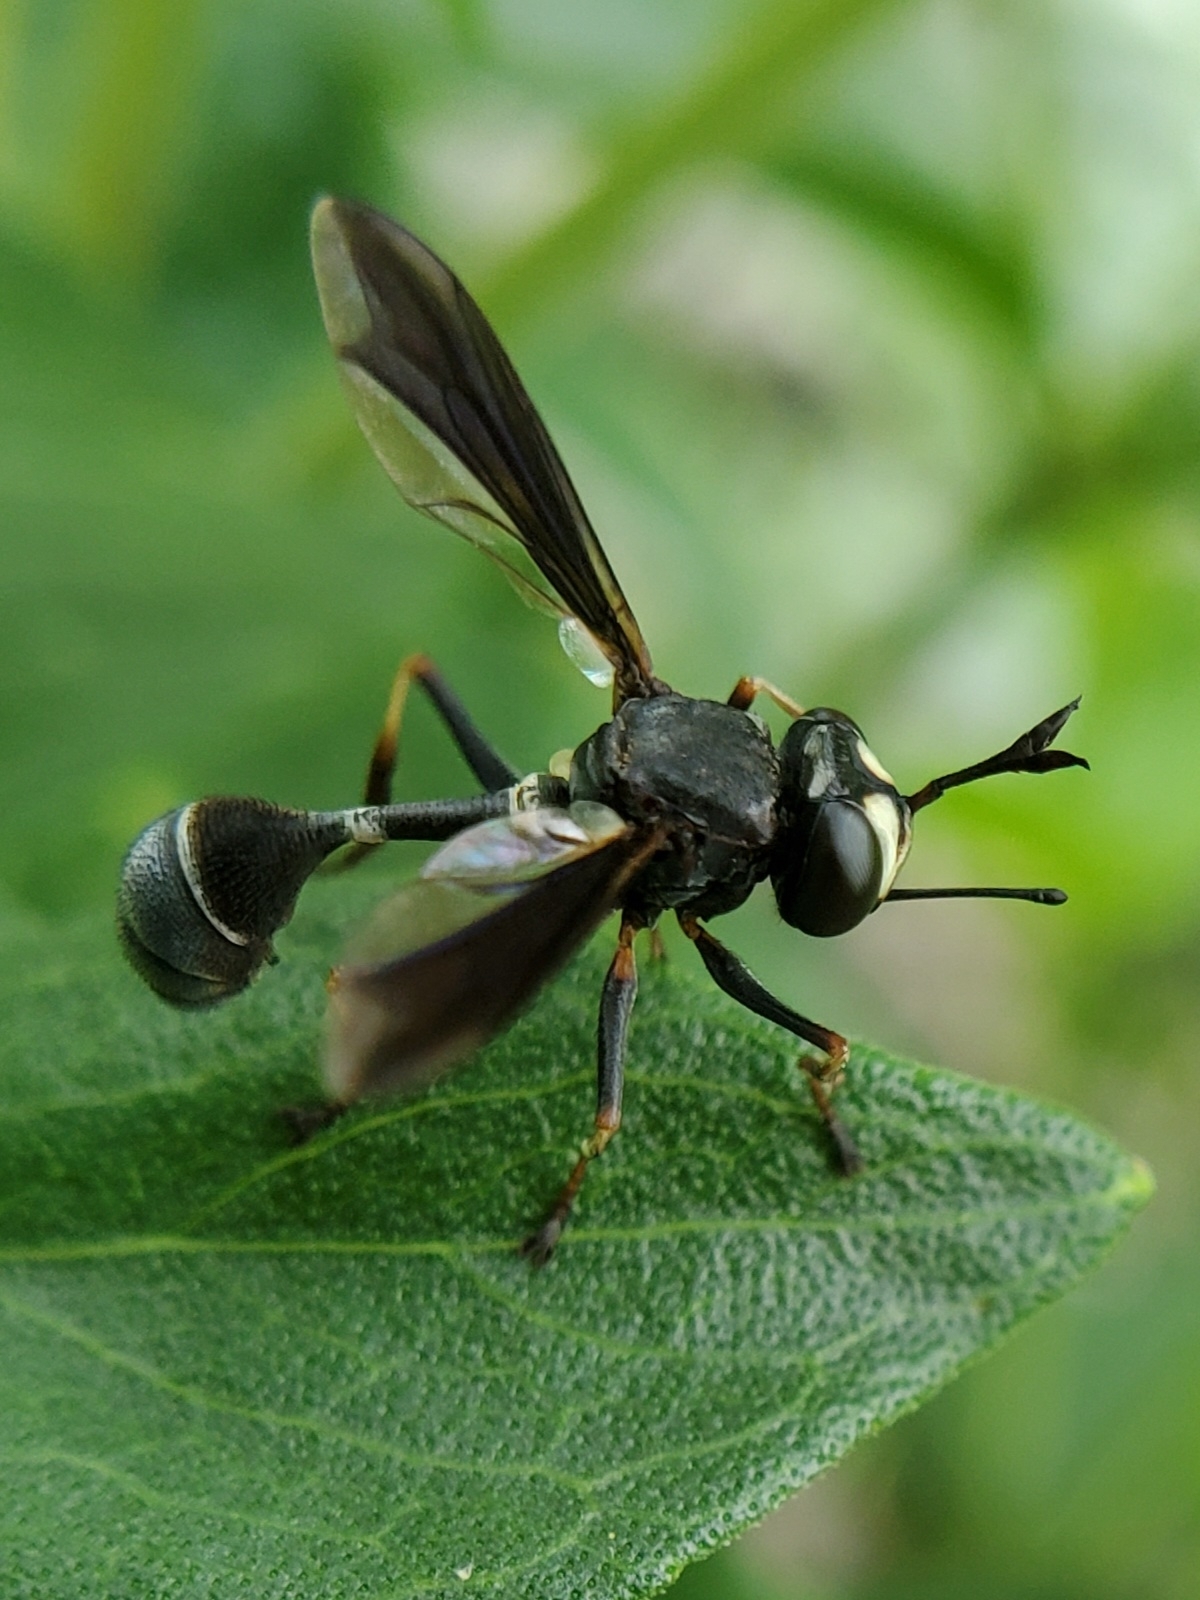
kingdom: Animalia
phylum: Arthropoda
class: Insecta
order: Diptera
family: Conopidae
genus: Physocephala
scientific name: Physocephala tibialis
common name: Common eastern physocephala
